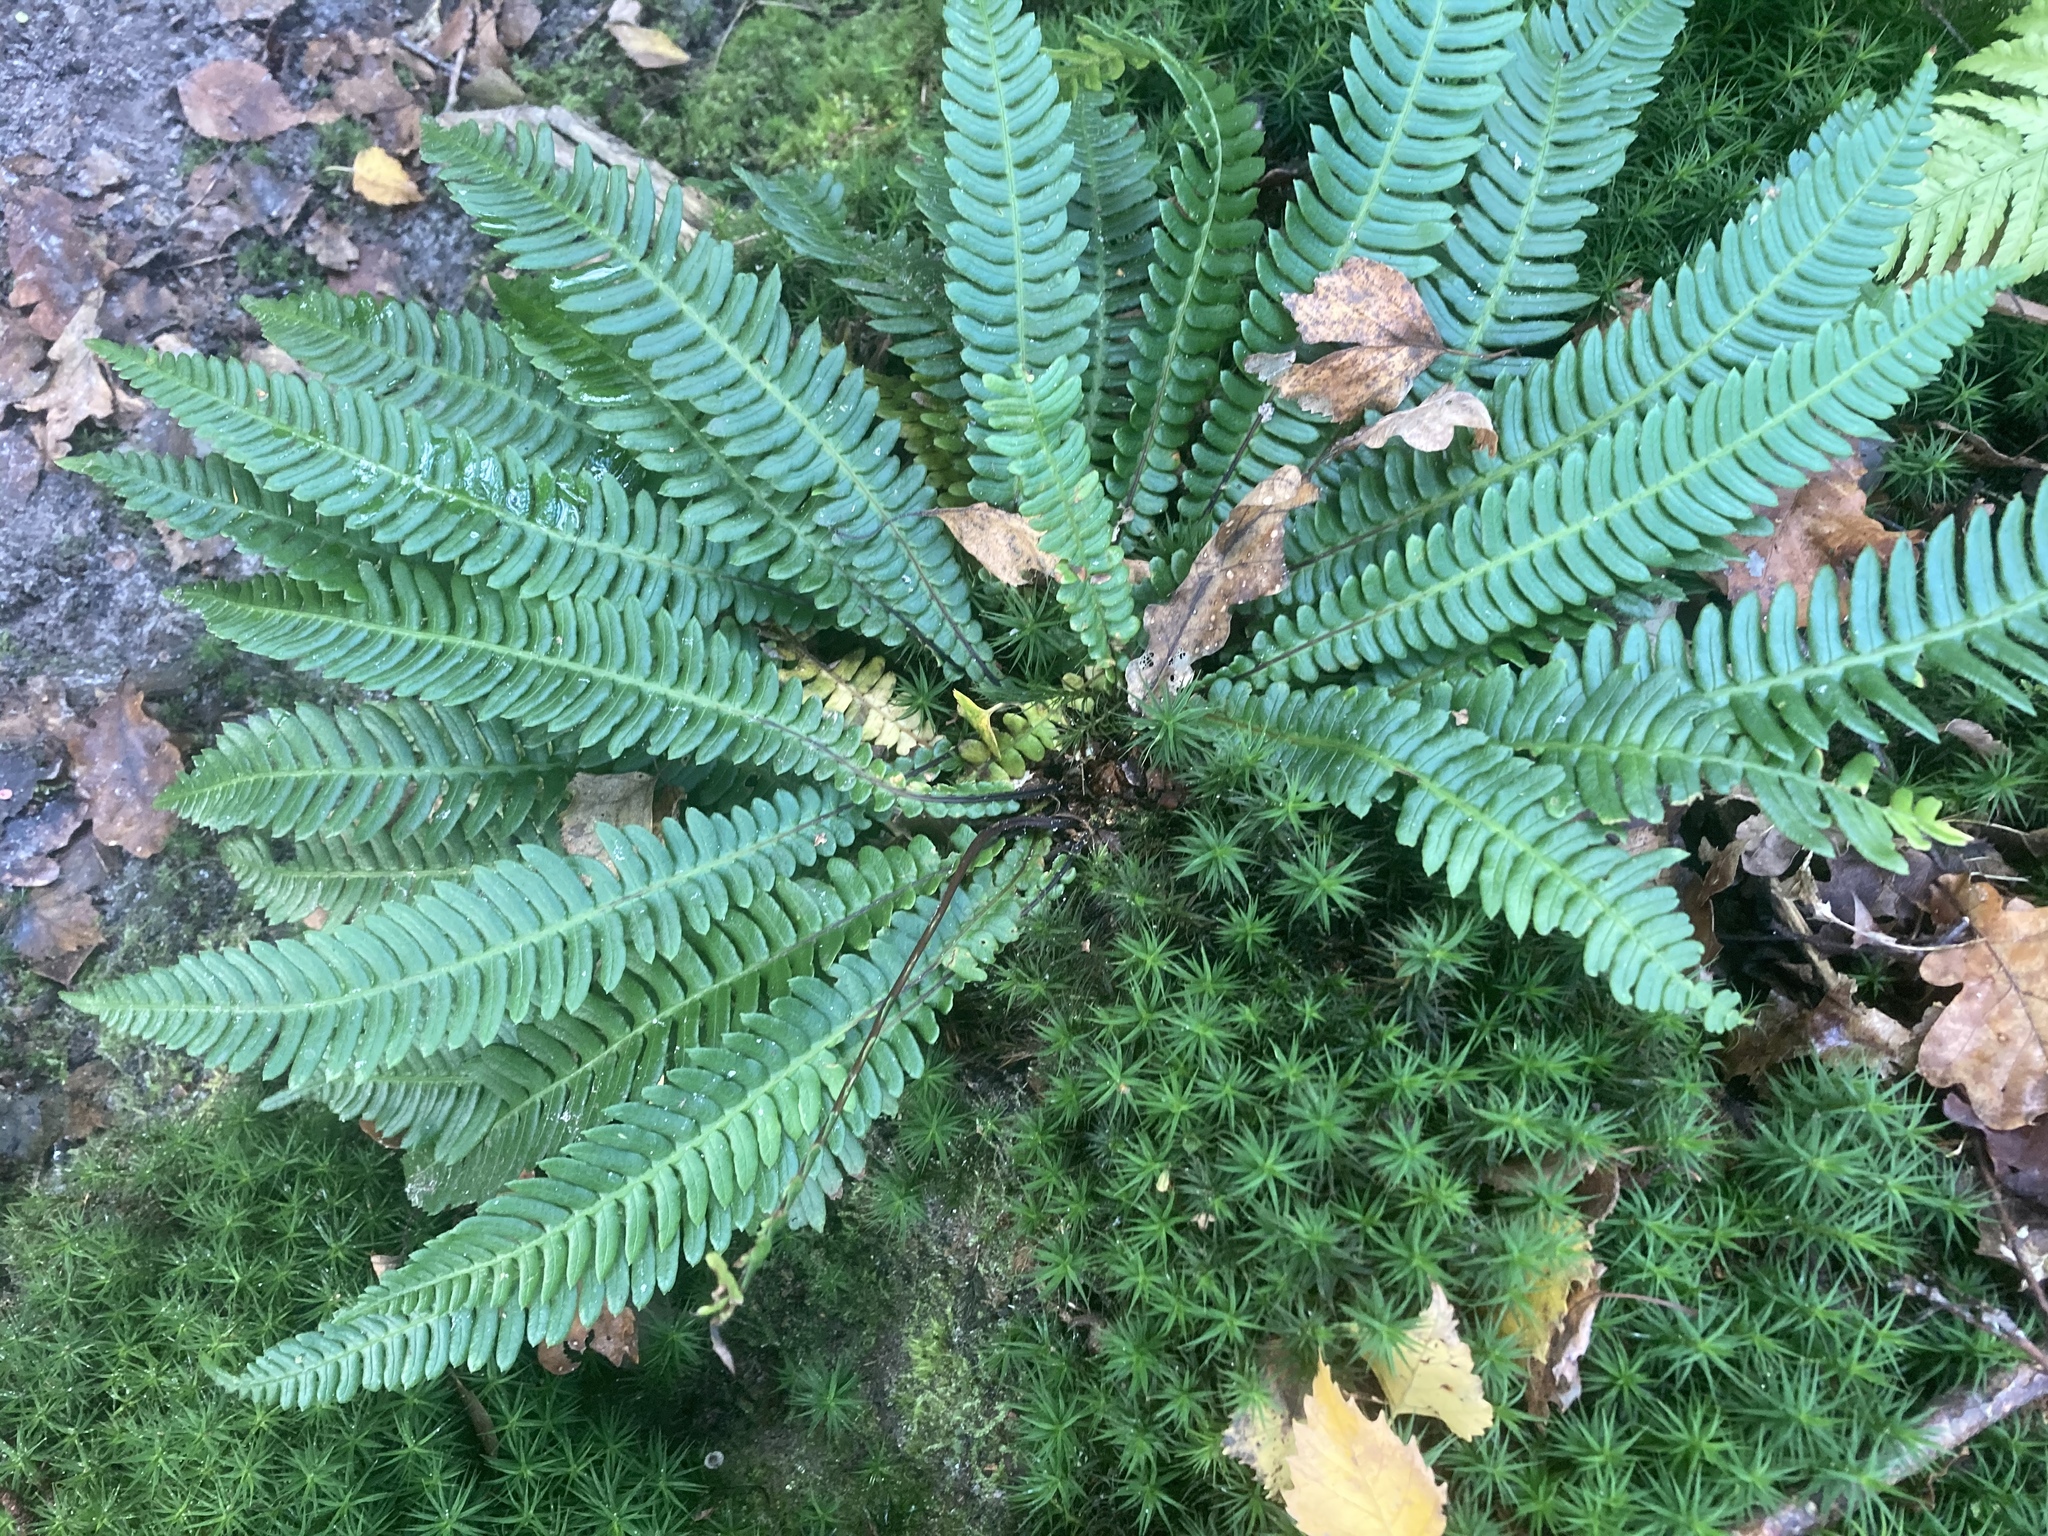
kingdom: Plantae
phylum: Tracheophyta
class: Polypodiopsida
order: Polypodiales
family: Blechnaceae
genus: Struthiopteris
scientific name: Struthiopteris spicant
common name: Deer fern
